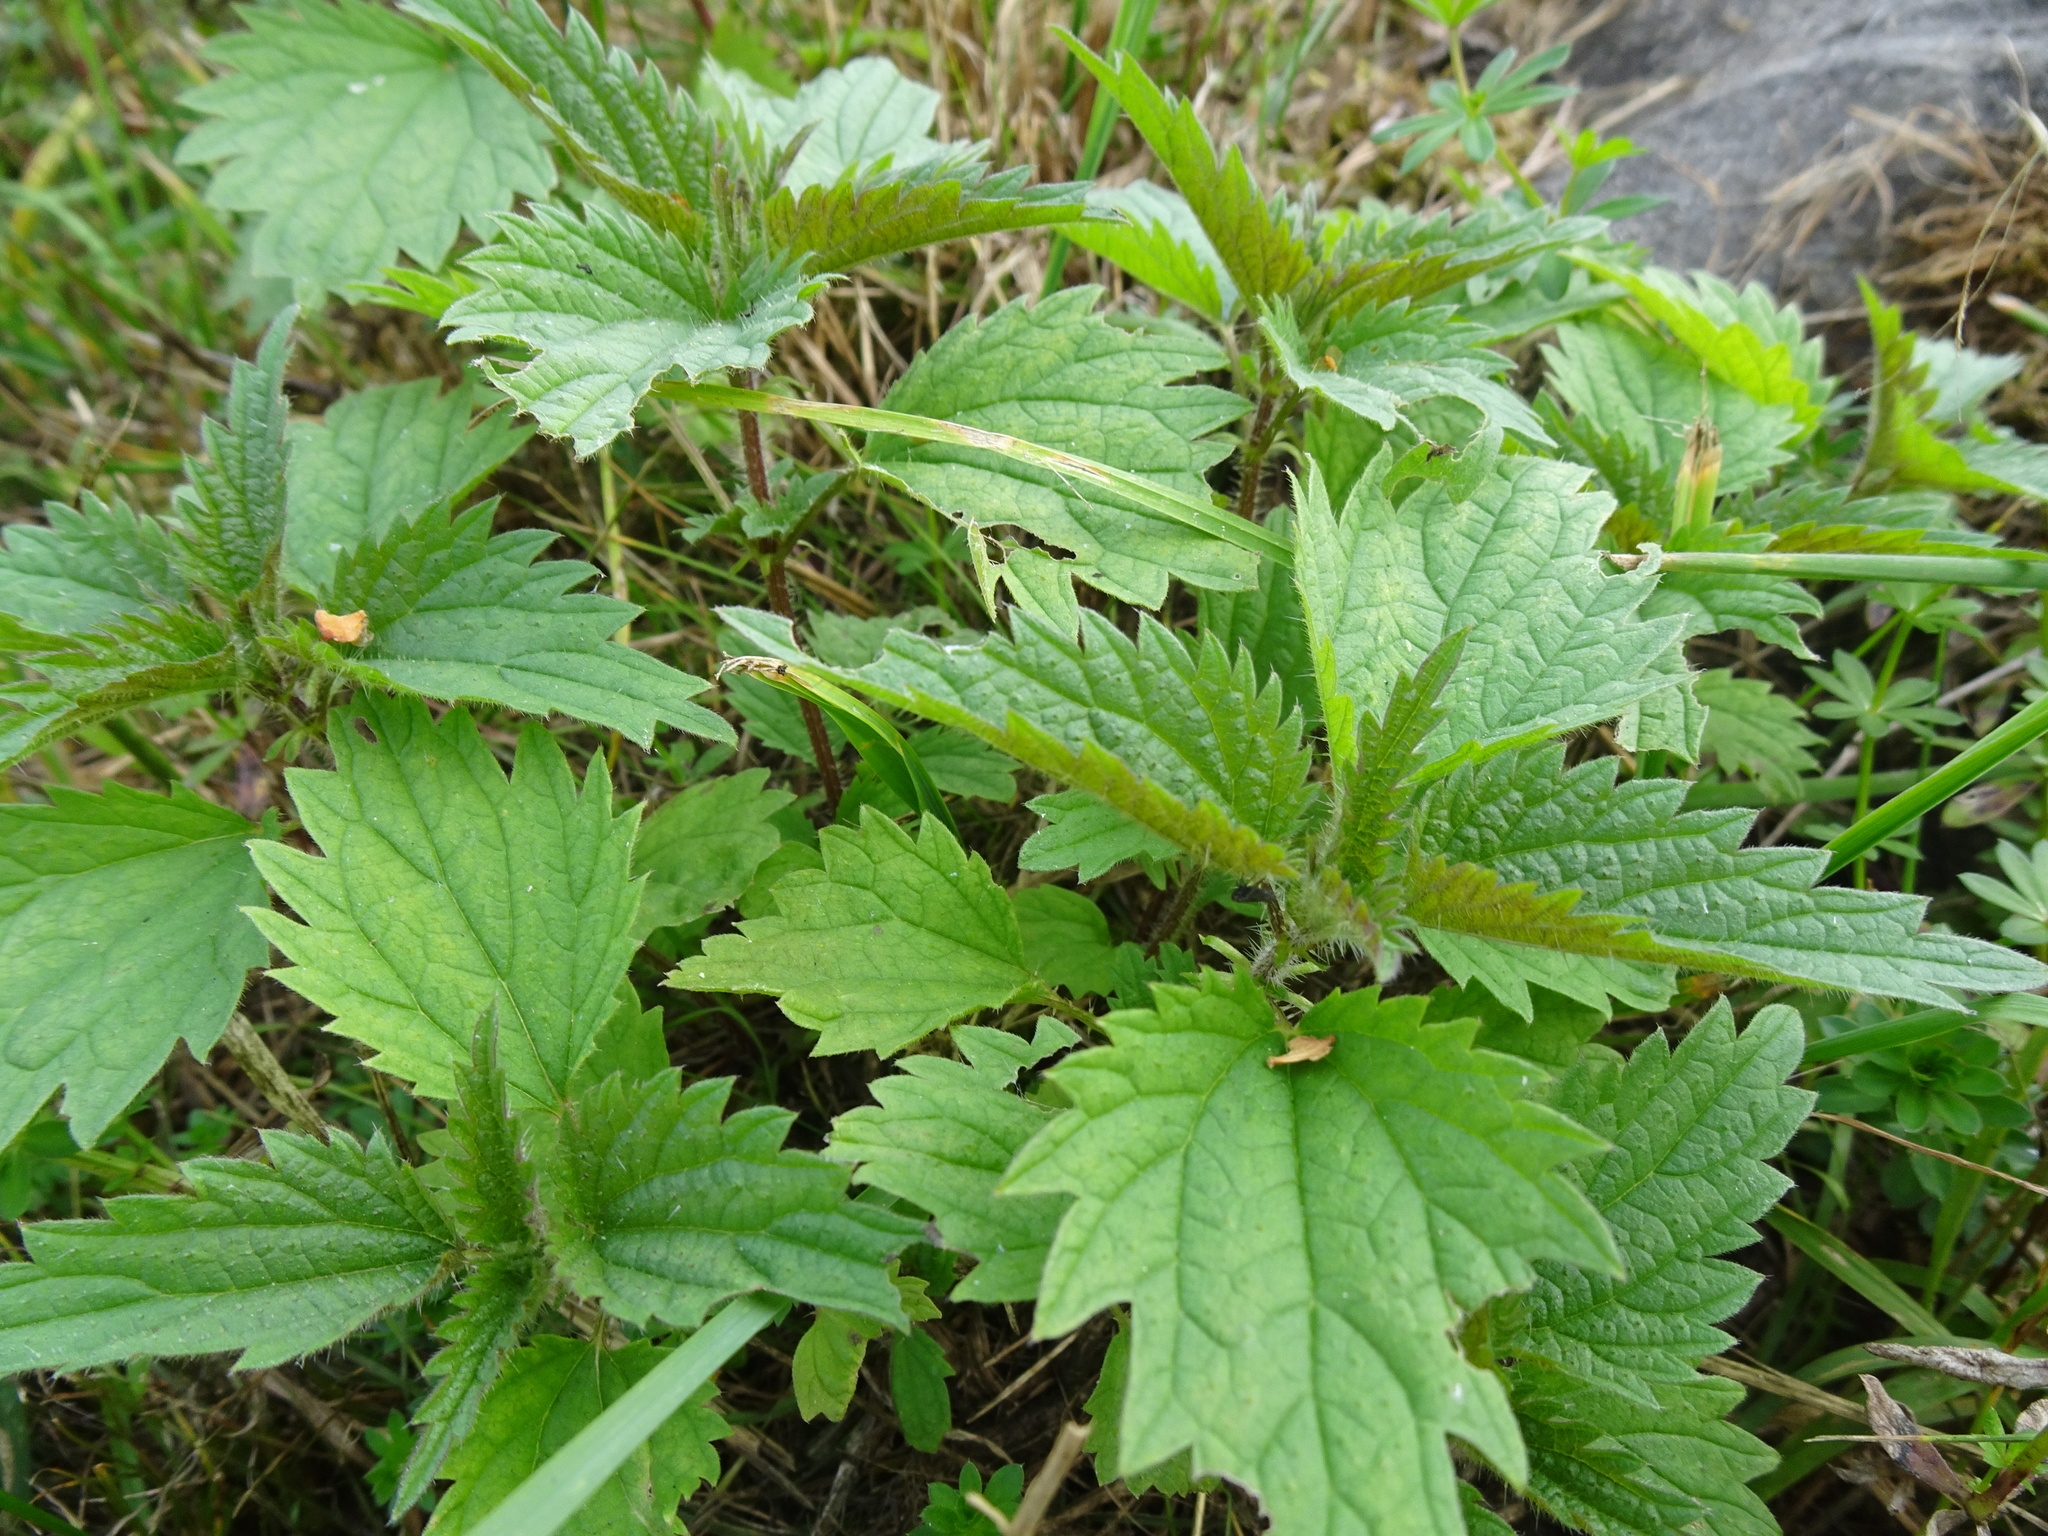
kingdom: Plantae
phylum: Tracheophyta
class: Magnoliopsida
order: Rosales
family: Urticaceae
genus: Urtica
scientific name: Urtica dioica
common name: Common nettle
